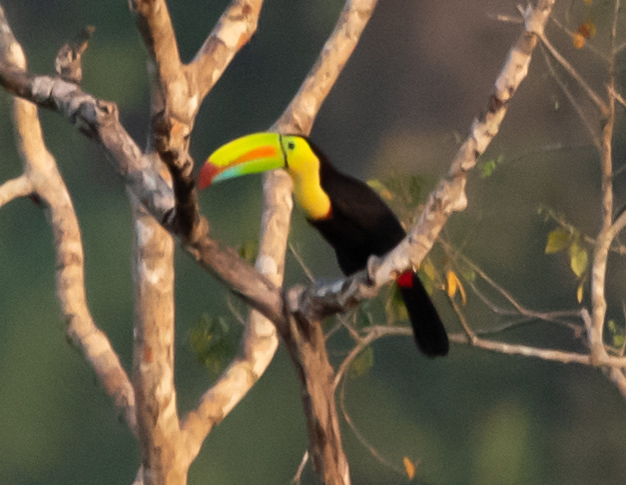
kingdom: Animalia
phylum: Chordata
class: Aves
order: Piciformes
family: Ramphastidae
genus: Ramphastos
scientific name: Ramphastos sulfuratus
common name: Keel-billed toucan
